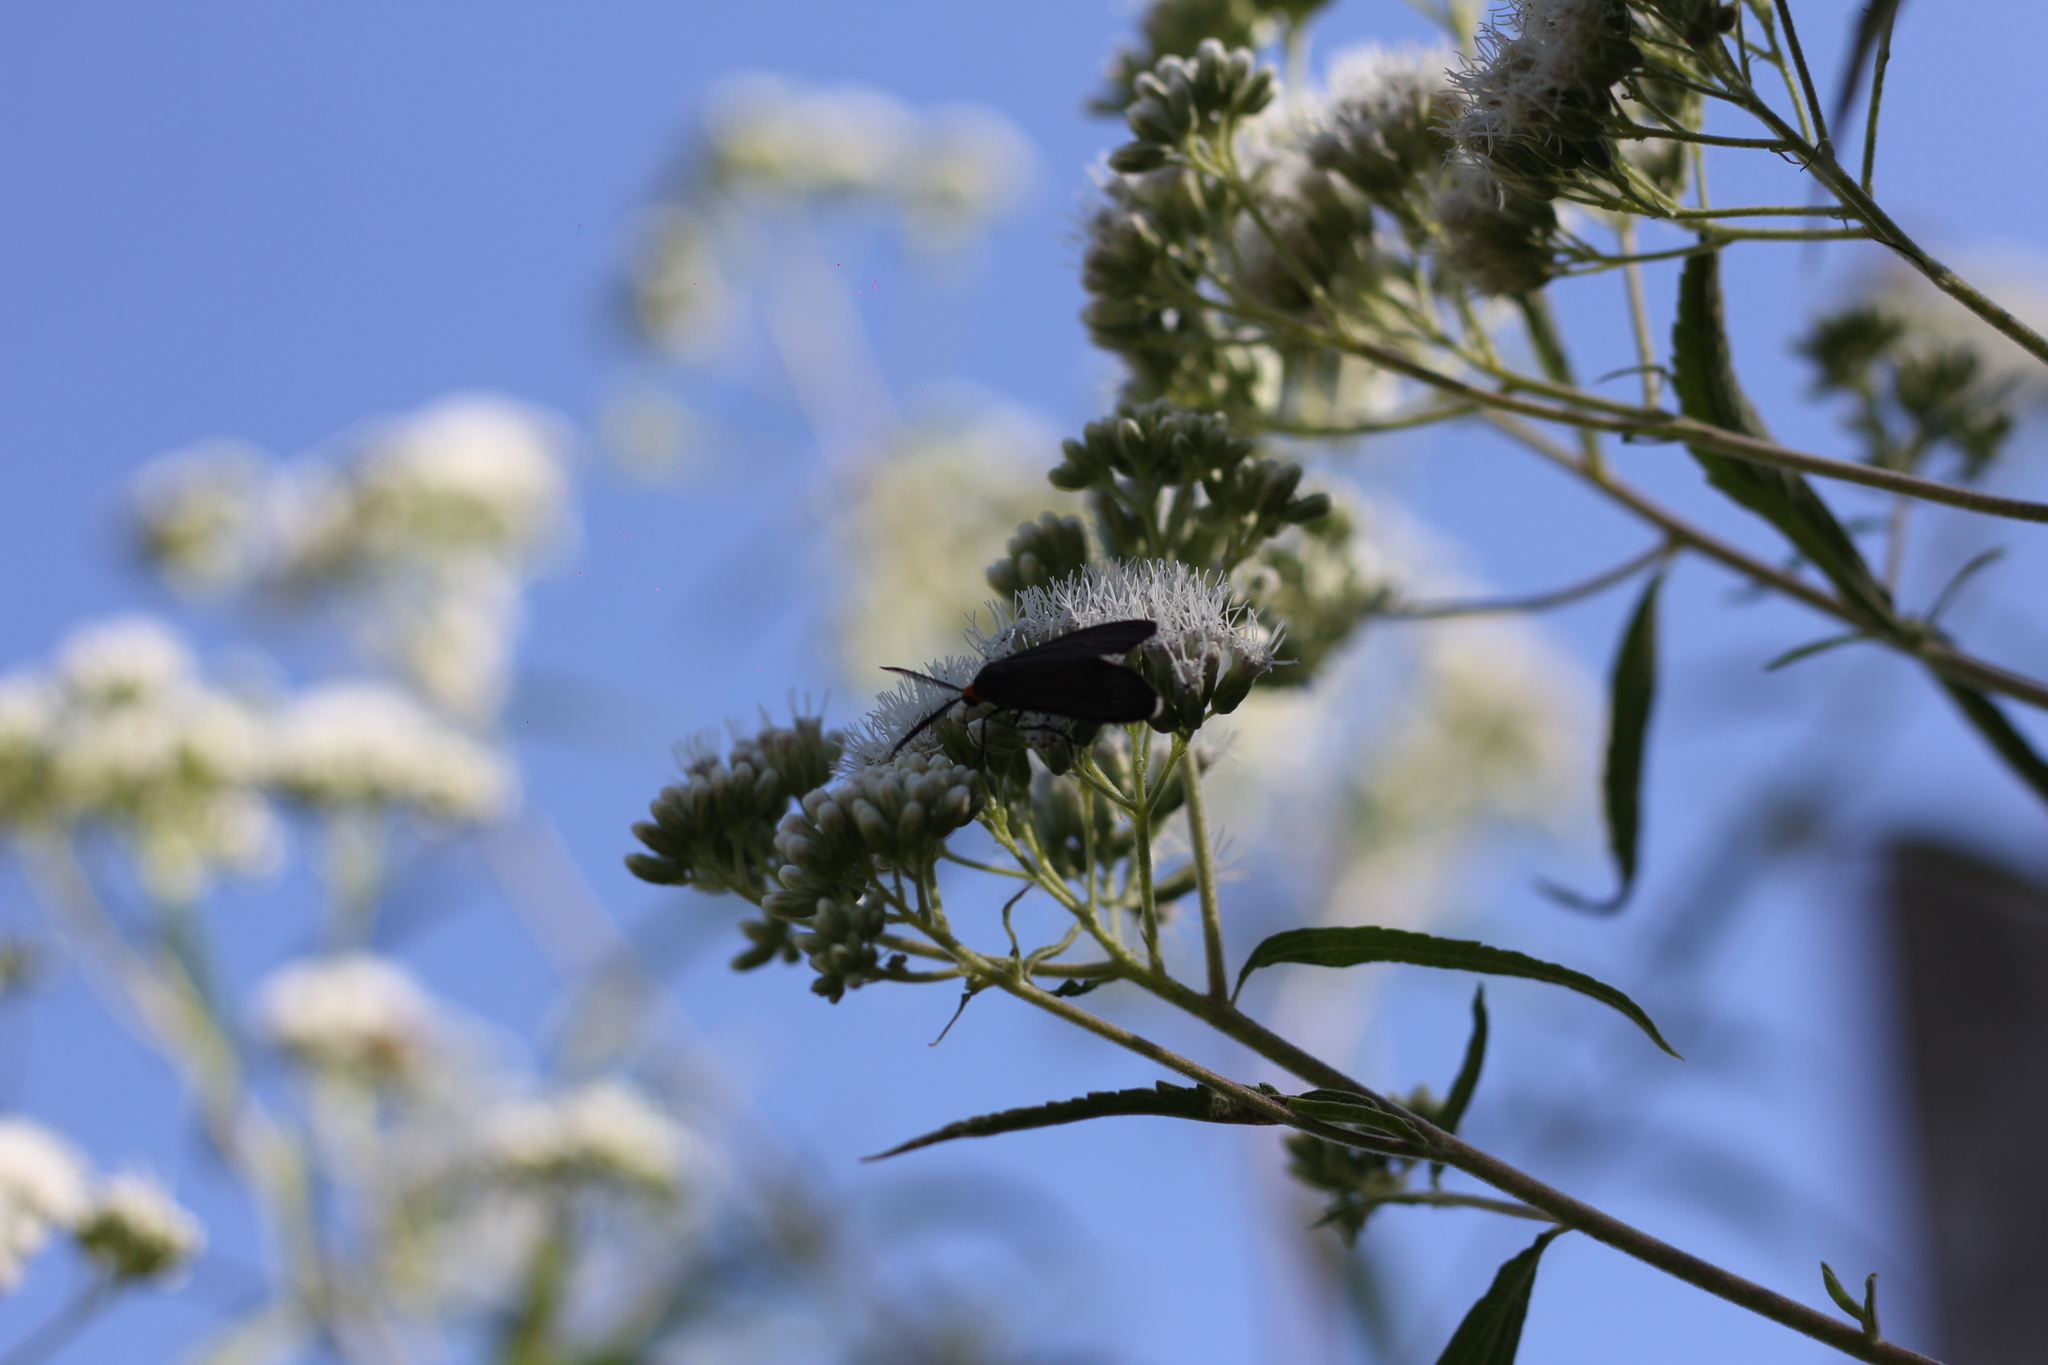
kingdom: Animalia
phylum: Arthropoda
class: Insecta
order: Lepidoptera
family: Erebidae
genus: Ctenucha
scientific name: Ctenucha rubriceps
